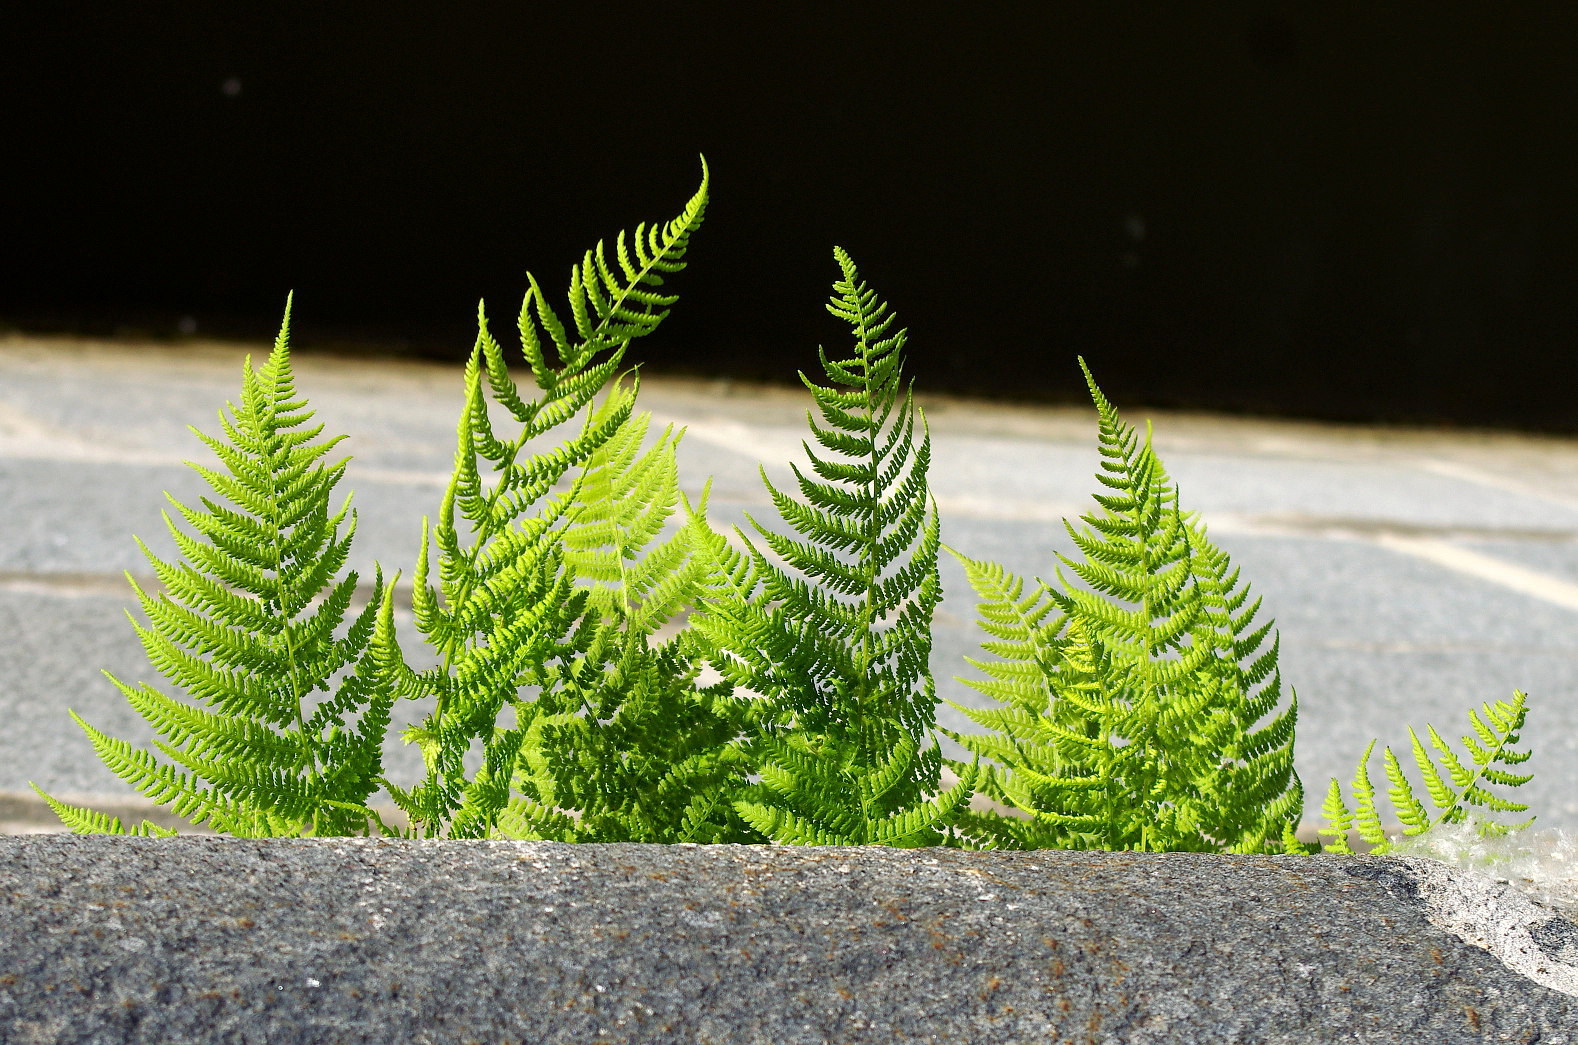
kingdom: Plantae
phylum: Tracheophyta
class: Polypodiopsida
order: Polypodiales
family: Athyriaceae
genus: Athyrium
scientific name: Athyrium filix-femina
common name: Lady fern
